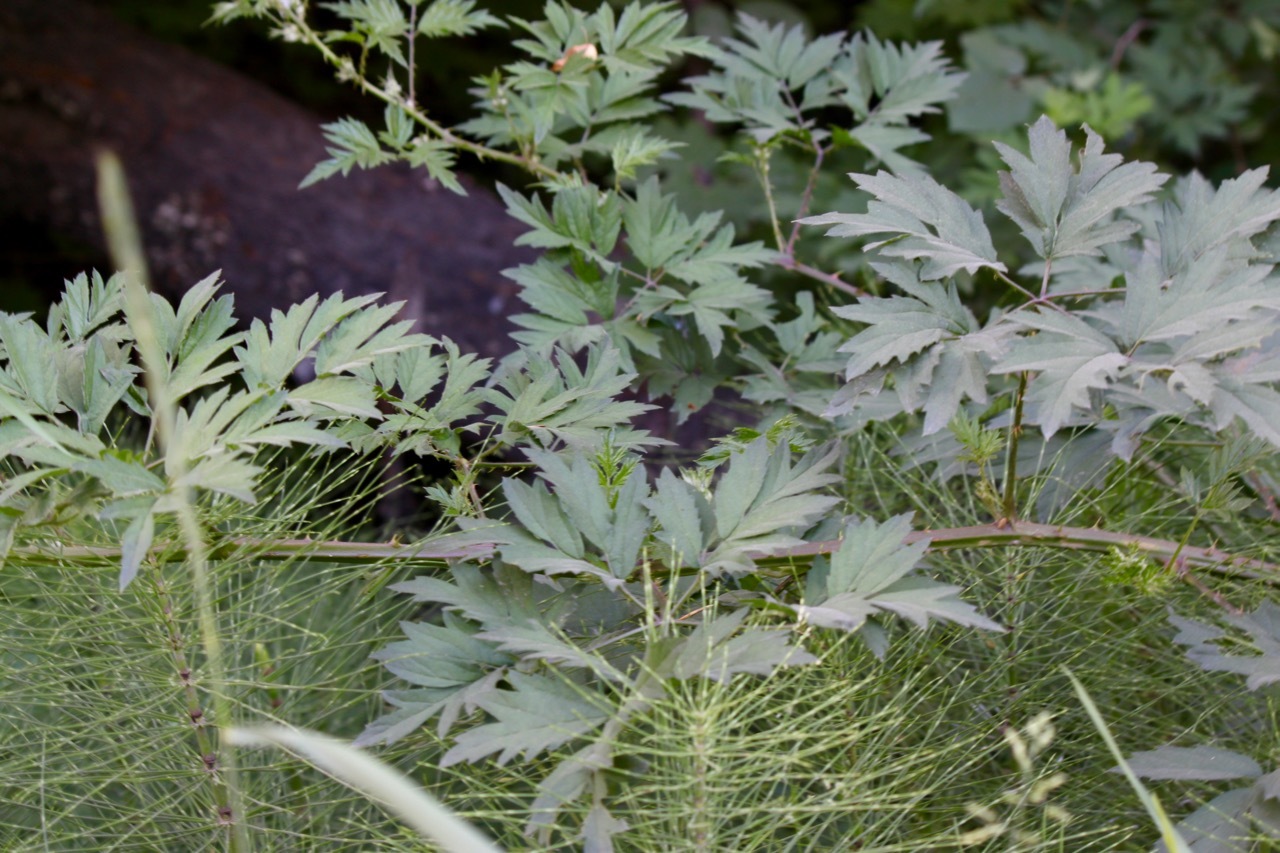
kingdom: Plantae
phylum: Tracheophyta
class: Magnoliopsida
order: Rosales
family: Rosaceae
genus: Rubus
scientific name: Rubus laciniatus
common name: Evergreen blackberry
